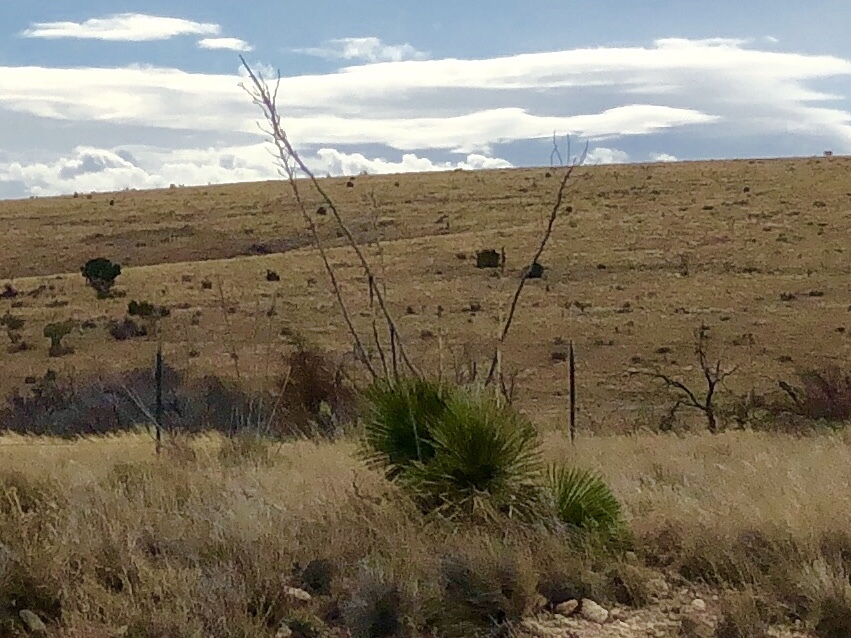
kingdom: Plantae
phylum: Tracheophyta
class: Liliopsida
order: Asparagales
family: Asparagaceae
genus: Yucca
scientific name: Yucca elata
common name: Palmella
